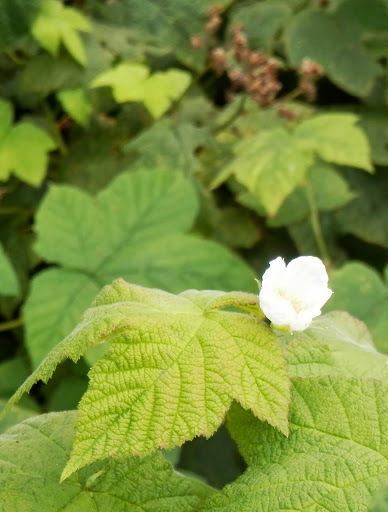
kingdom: Plantae
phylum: Tracheophyta
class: Magnoliopsida
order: Rosales
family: Rosaceae
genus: Rubus
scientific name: Rubus parviflorus
